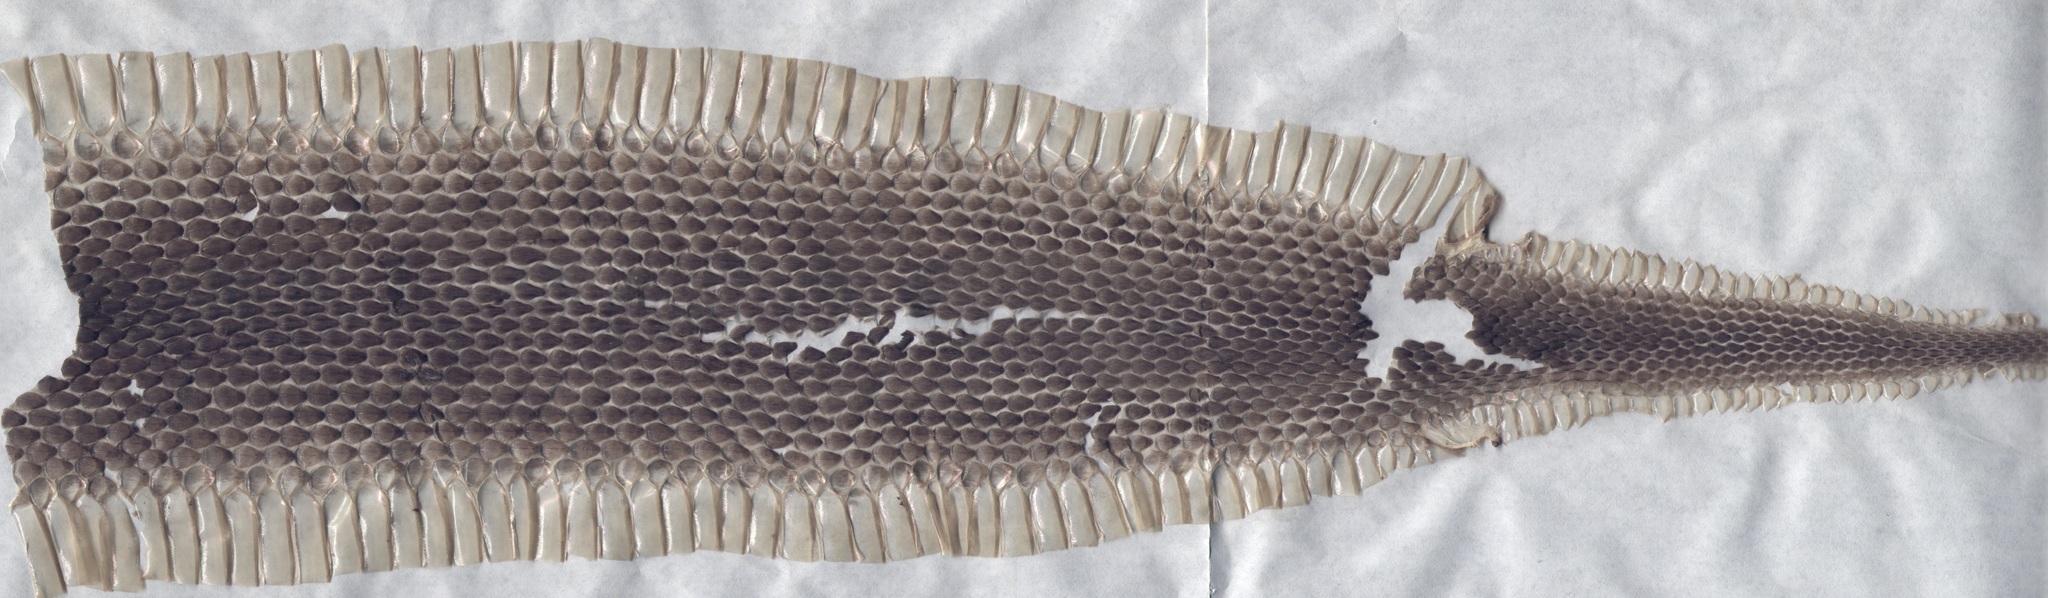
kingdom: Animalia
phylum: Chordata
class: Squamata
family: Viperidae
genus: Macrovipera
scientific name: Macrovipera lebetinus
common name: Levantine viper
